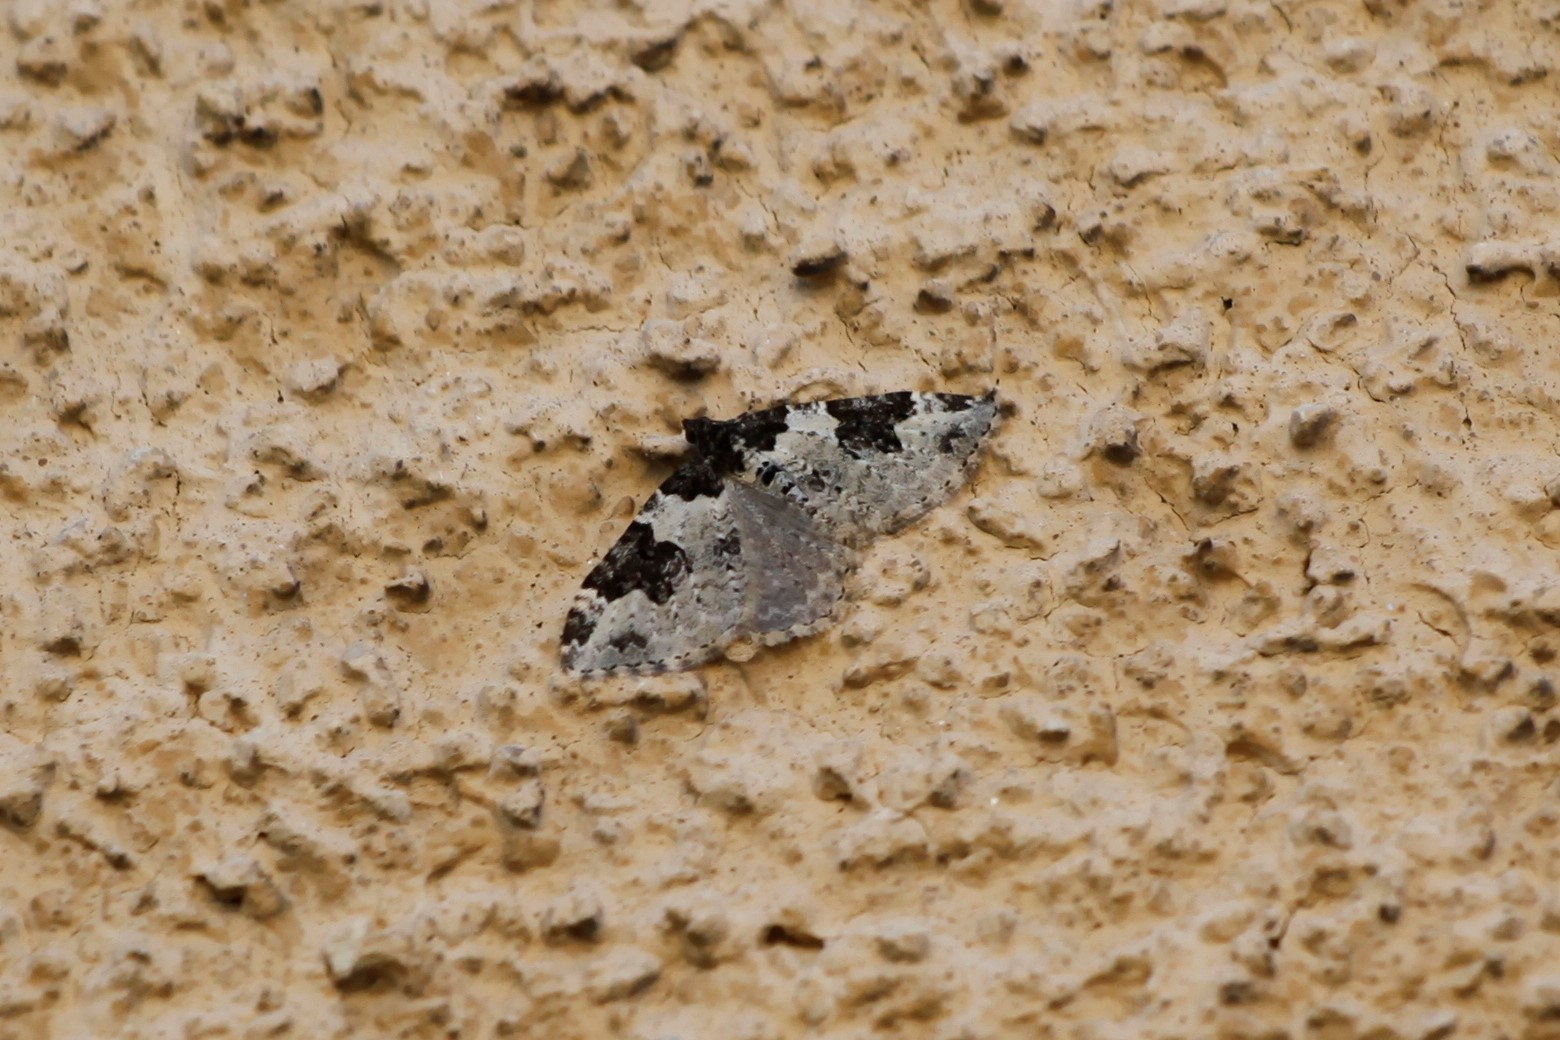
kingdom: Animalia
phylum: Arthropoda
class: Insecta
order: Lepidoptera
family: Geometridae
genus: Xanthorhoe
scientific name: Xanthorhoe fluctuata
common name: Garden carpet
